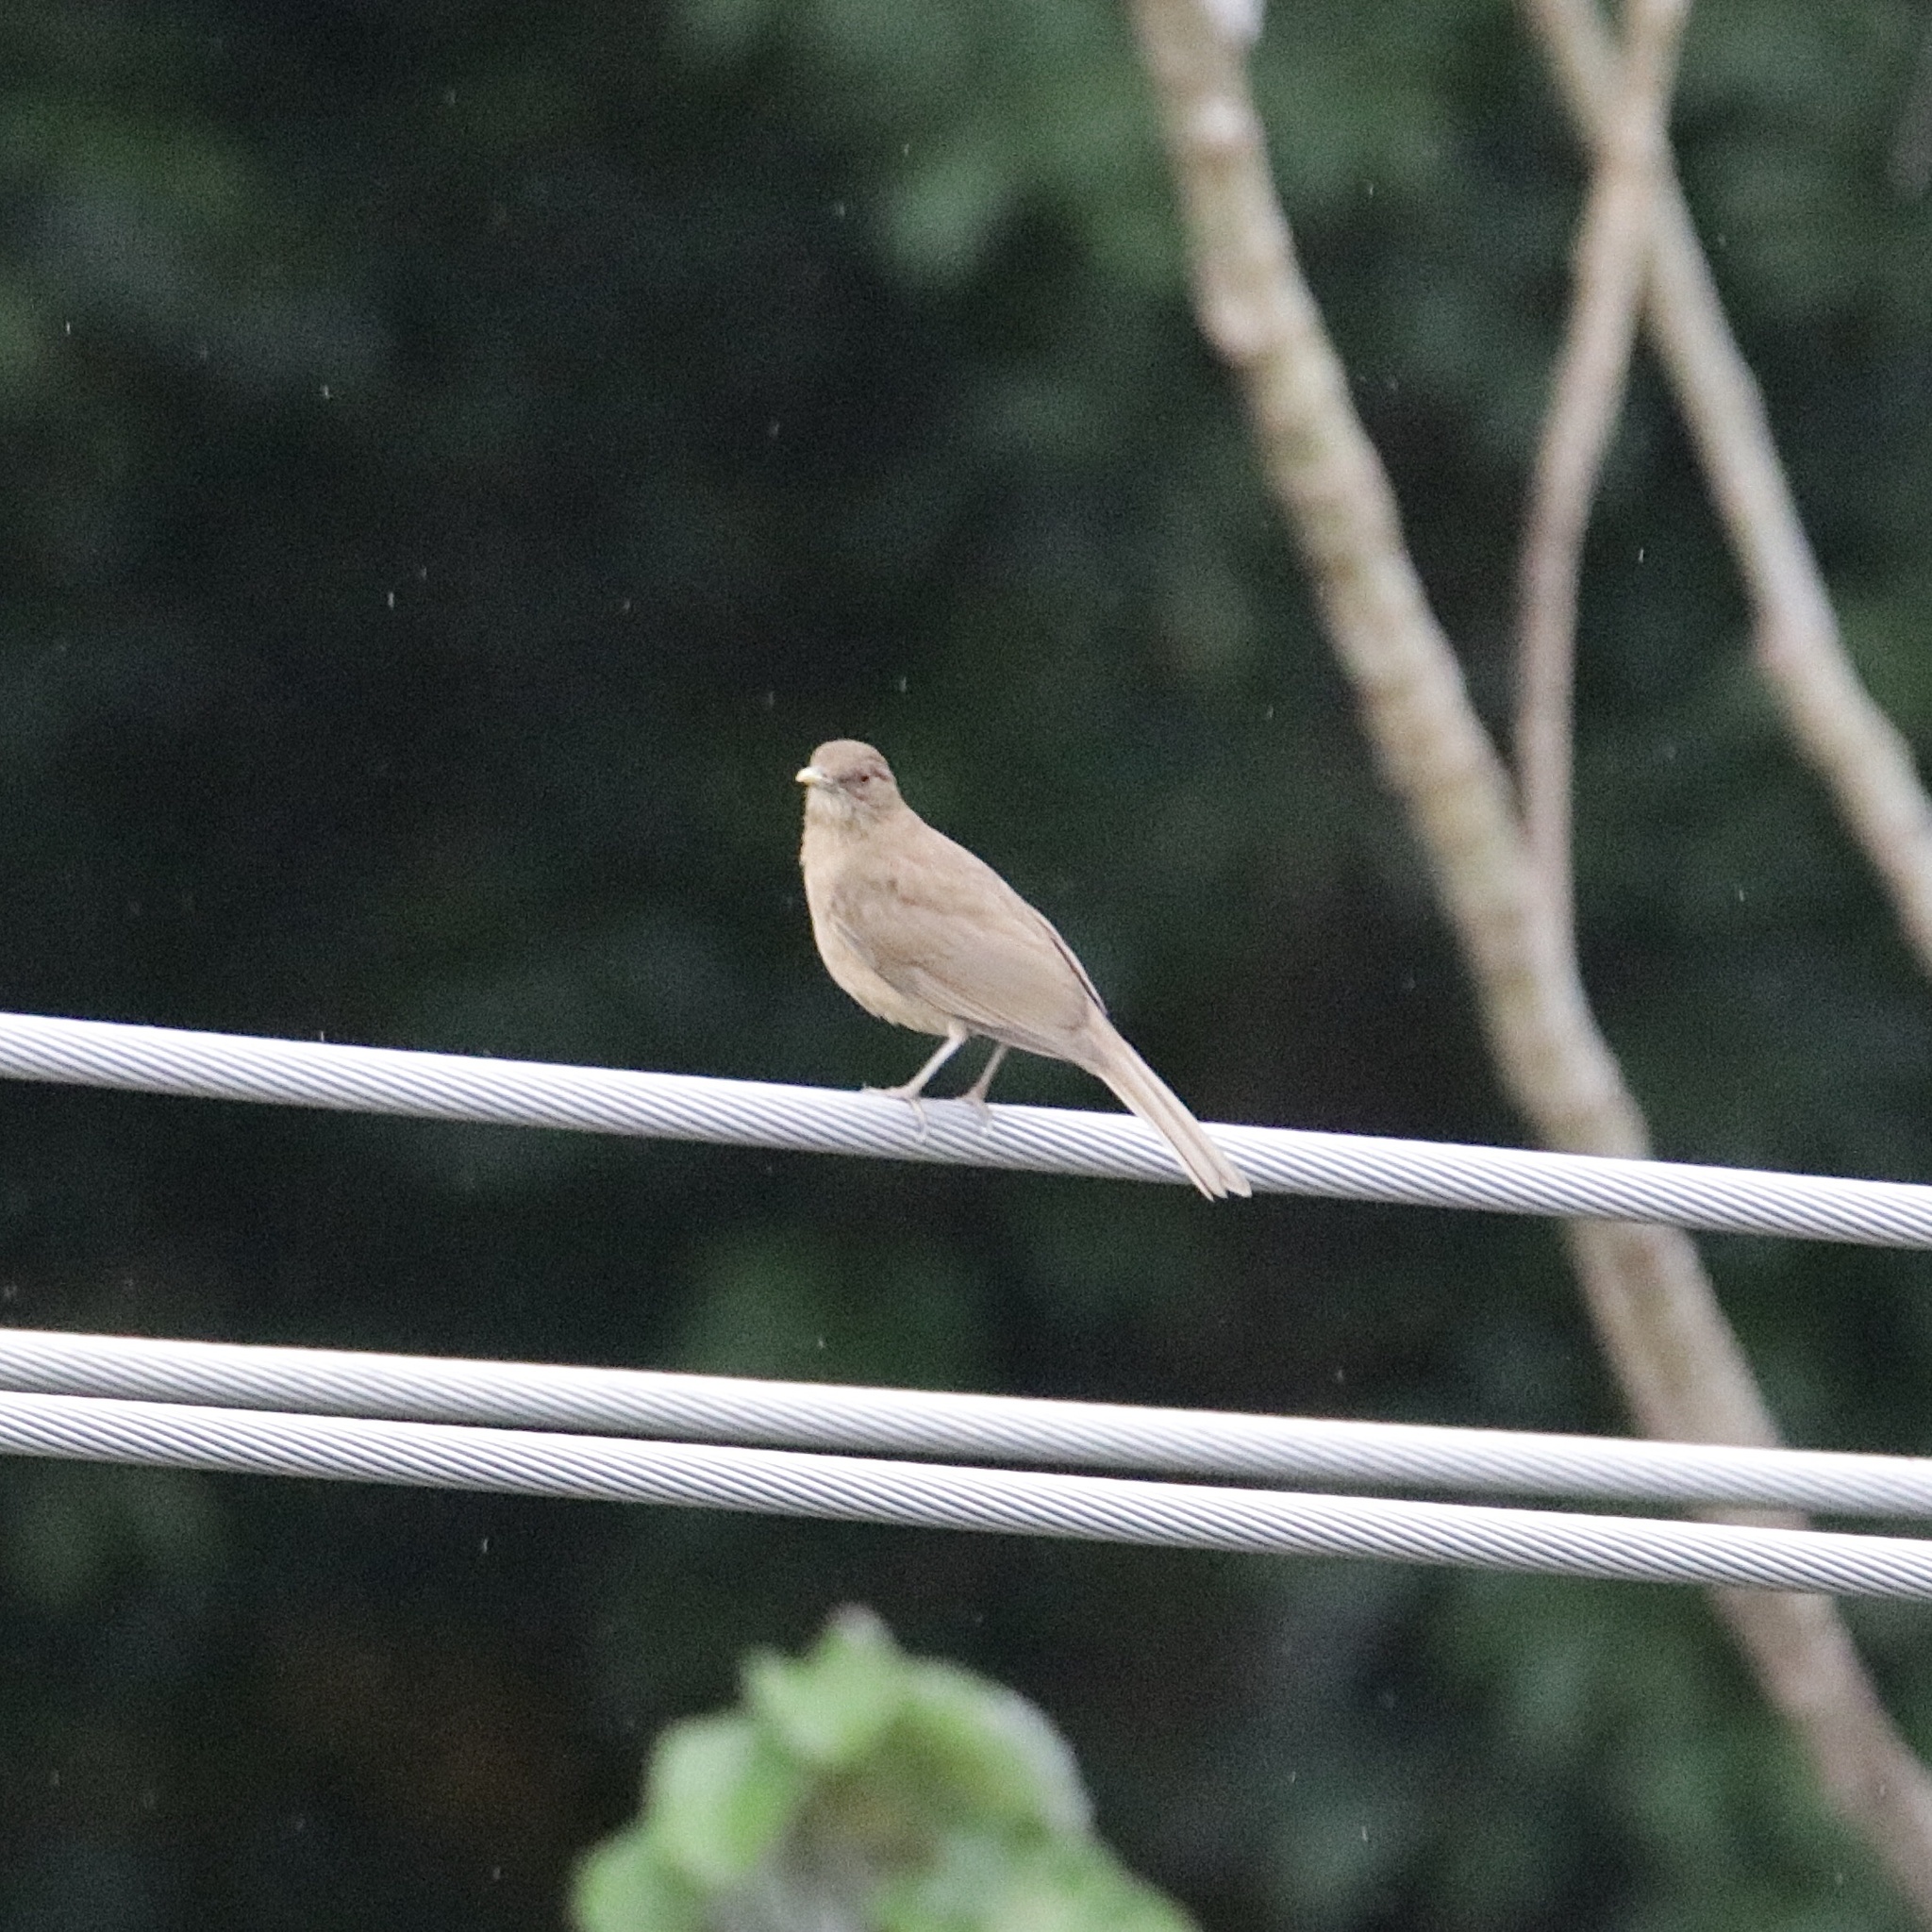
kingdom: Animalia
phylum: Chordata
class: Aves
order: Passeriformes
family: Turdidae
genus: Turdus
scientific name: Turdus grayi
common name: Clay-colored thrush
